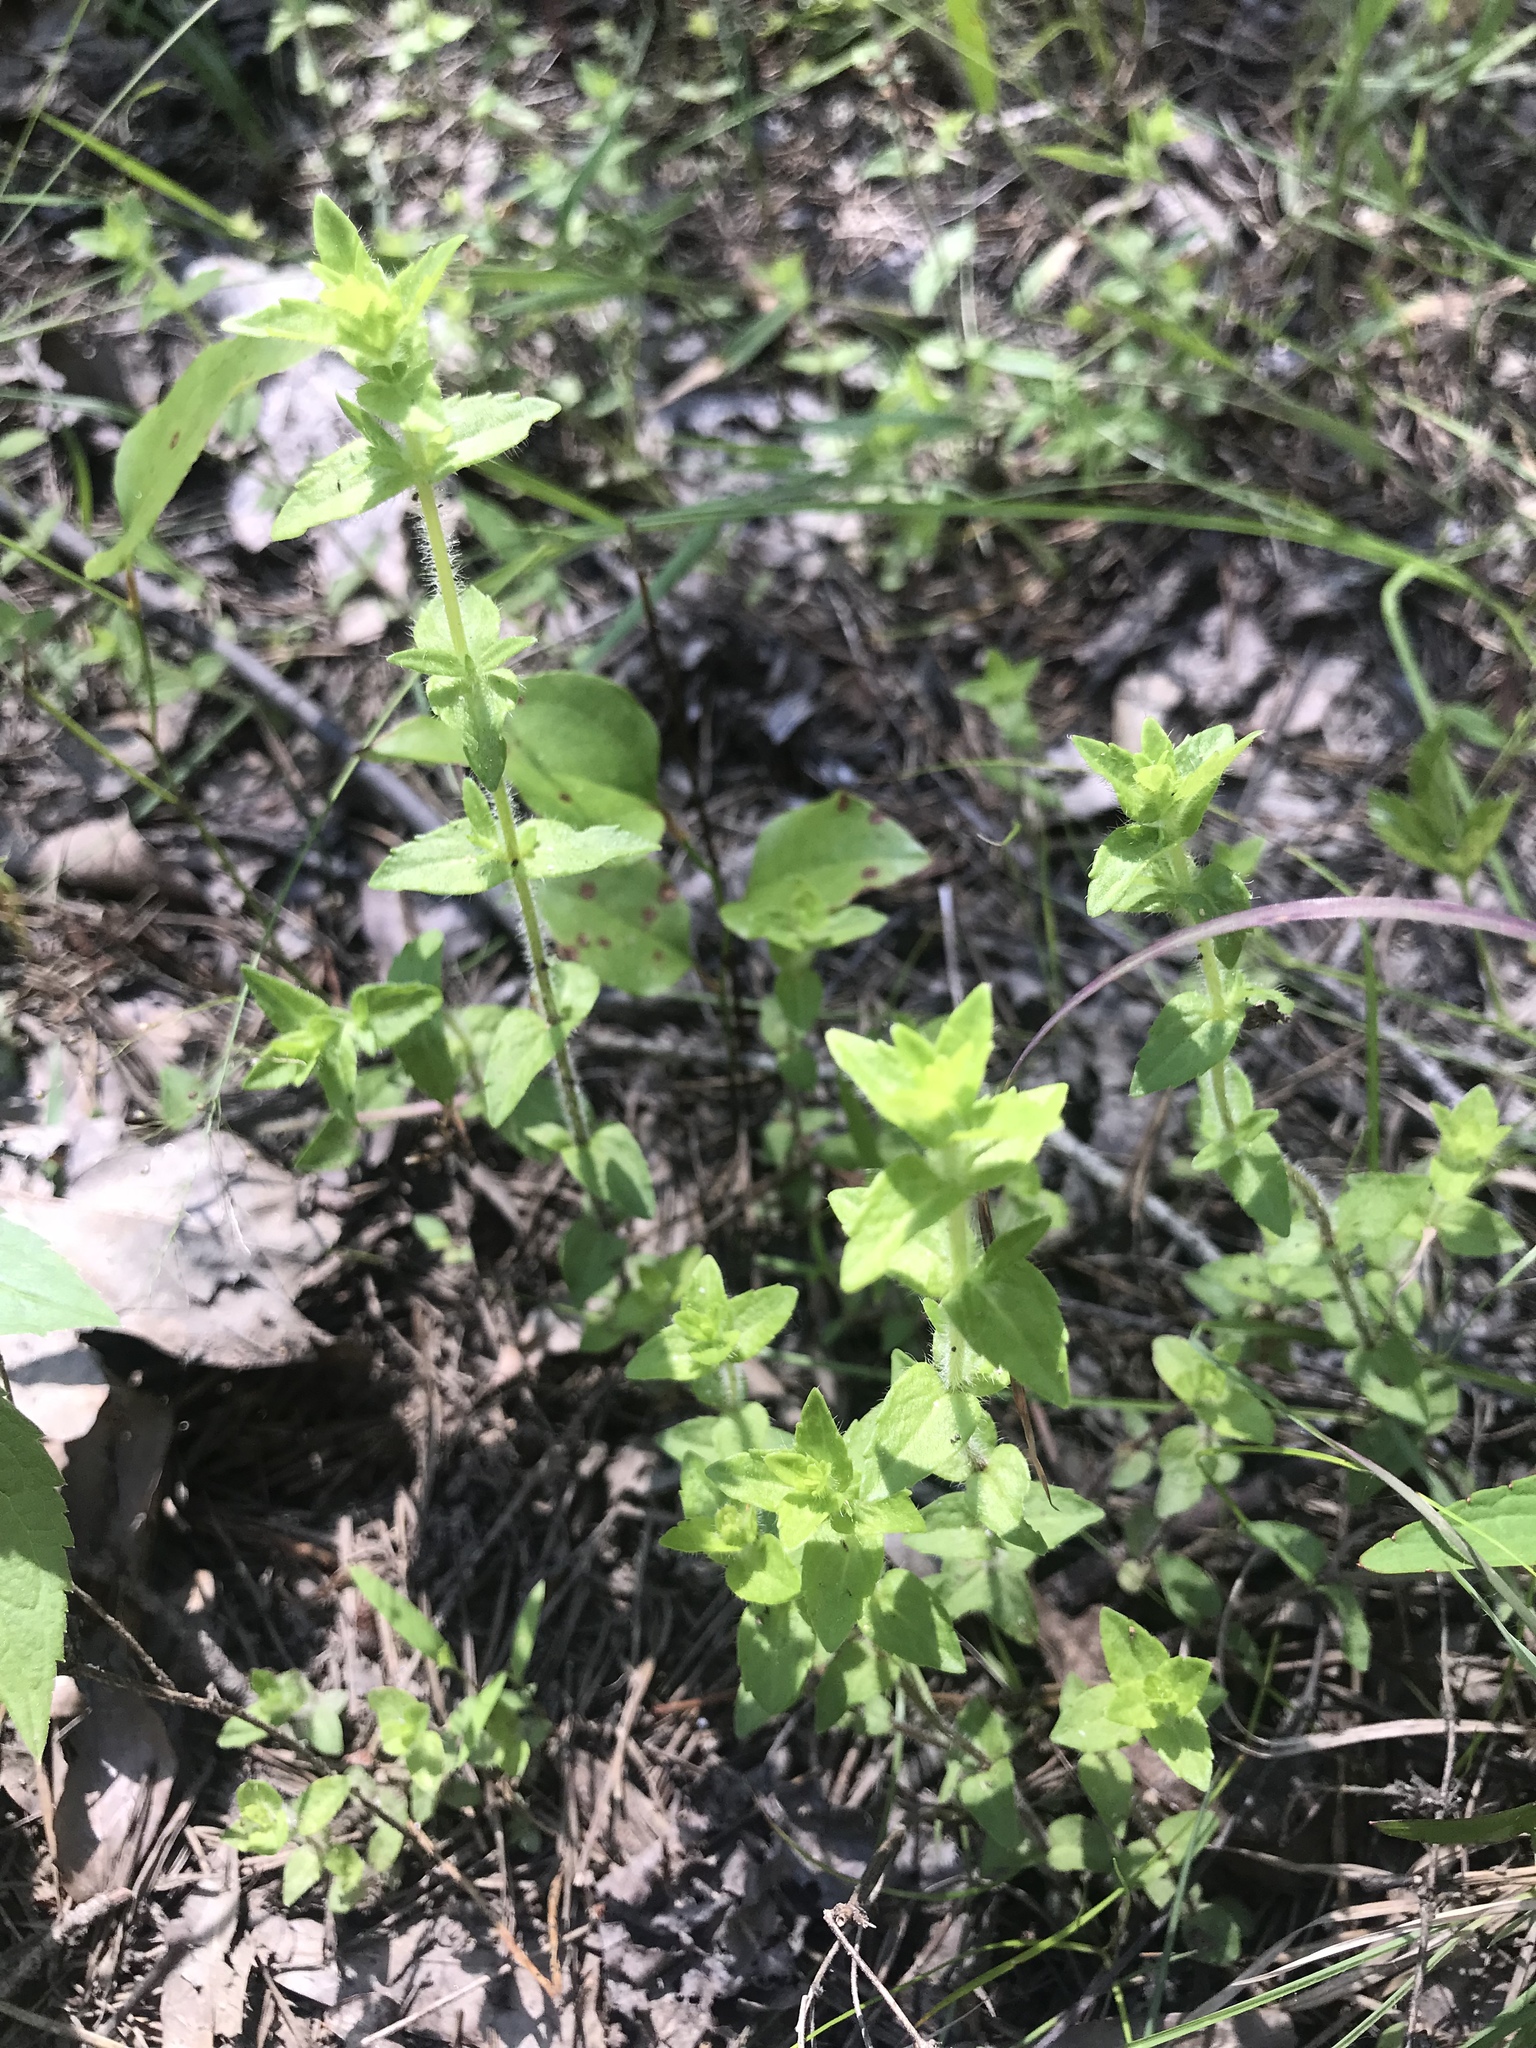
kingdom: Plantae
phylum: Tracheophyta
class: Magnoliopsida
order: Lamiales
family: Plantaginaceae
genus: Gratiola
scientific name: Gratiola pilosa
